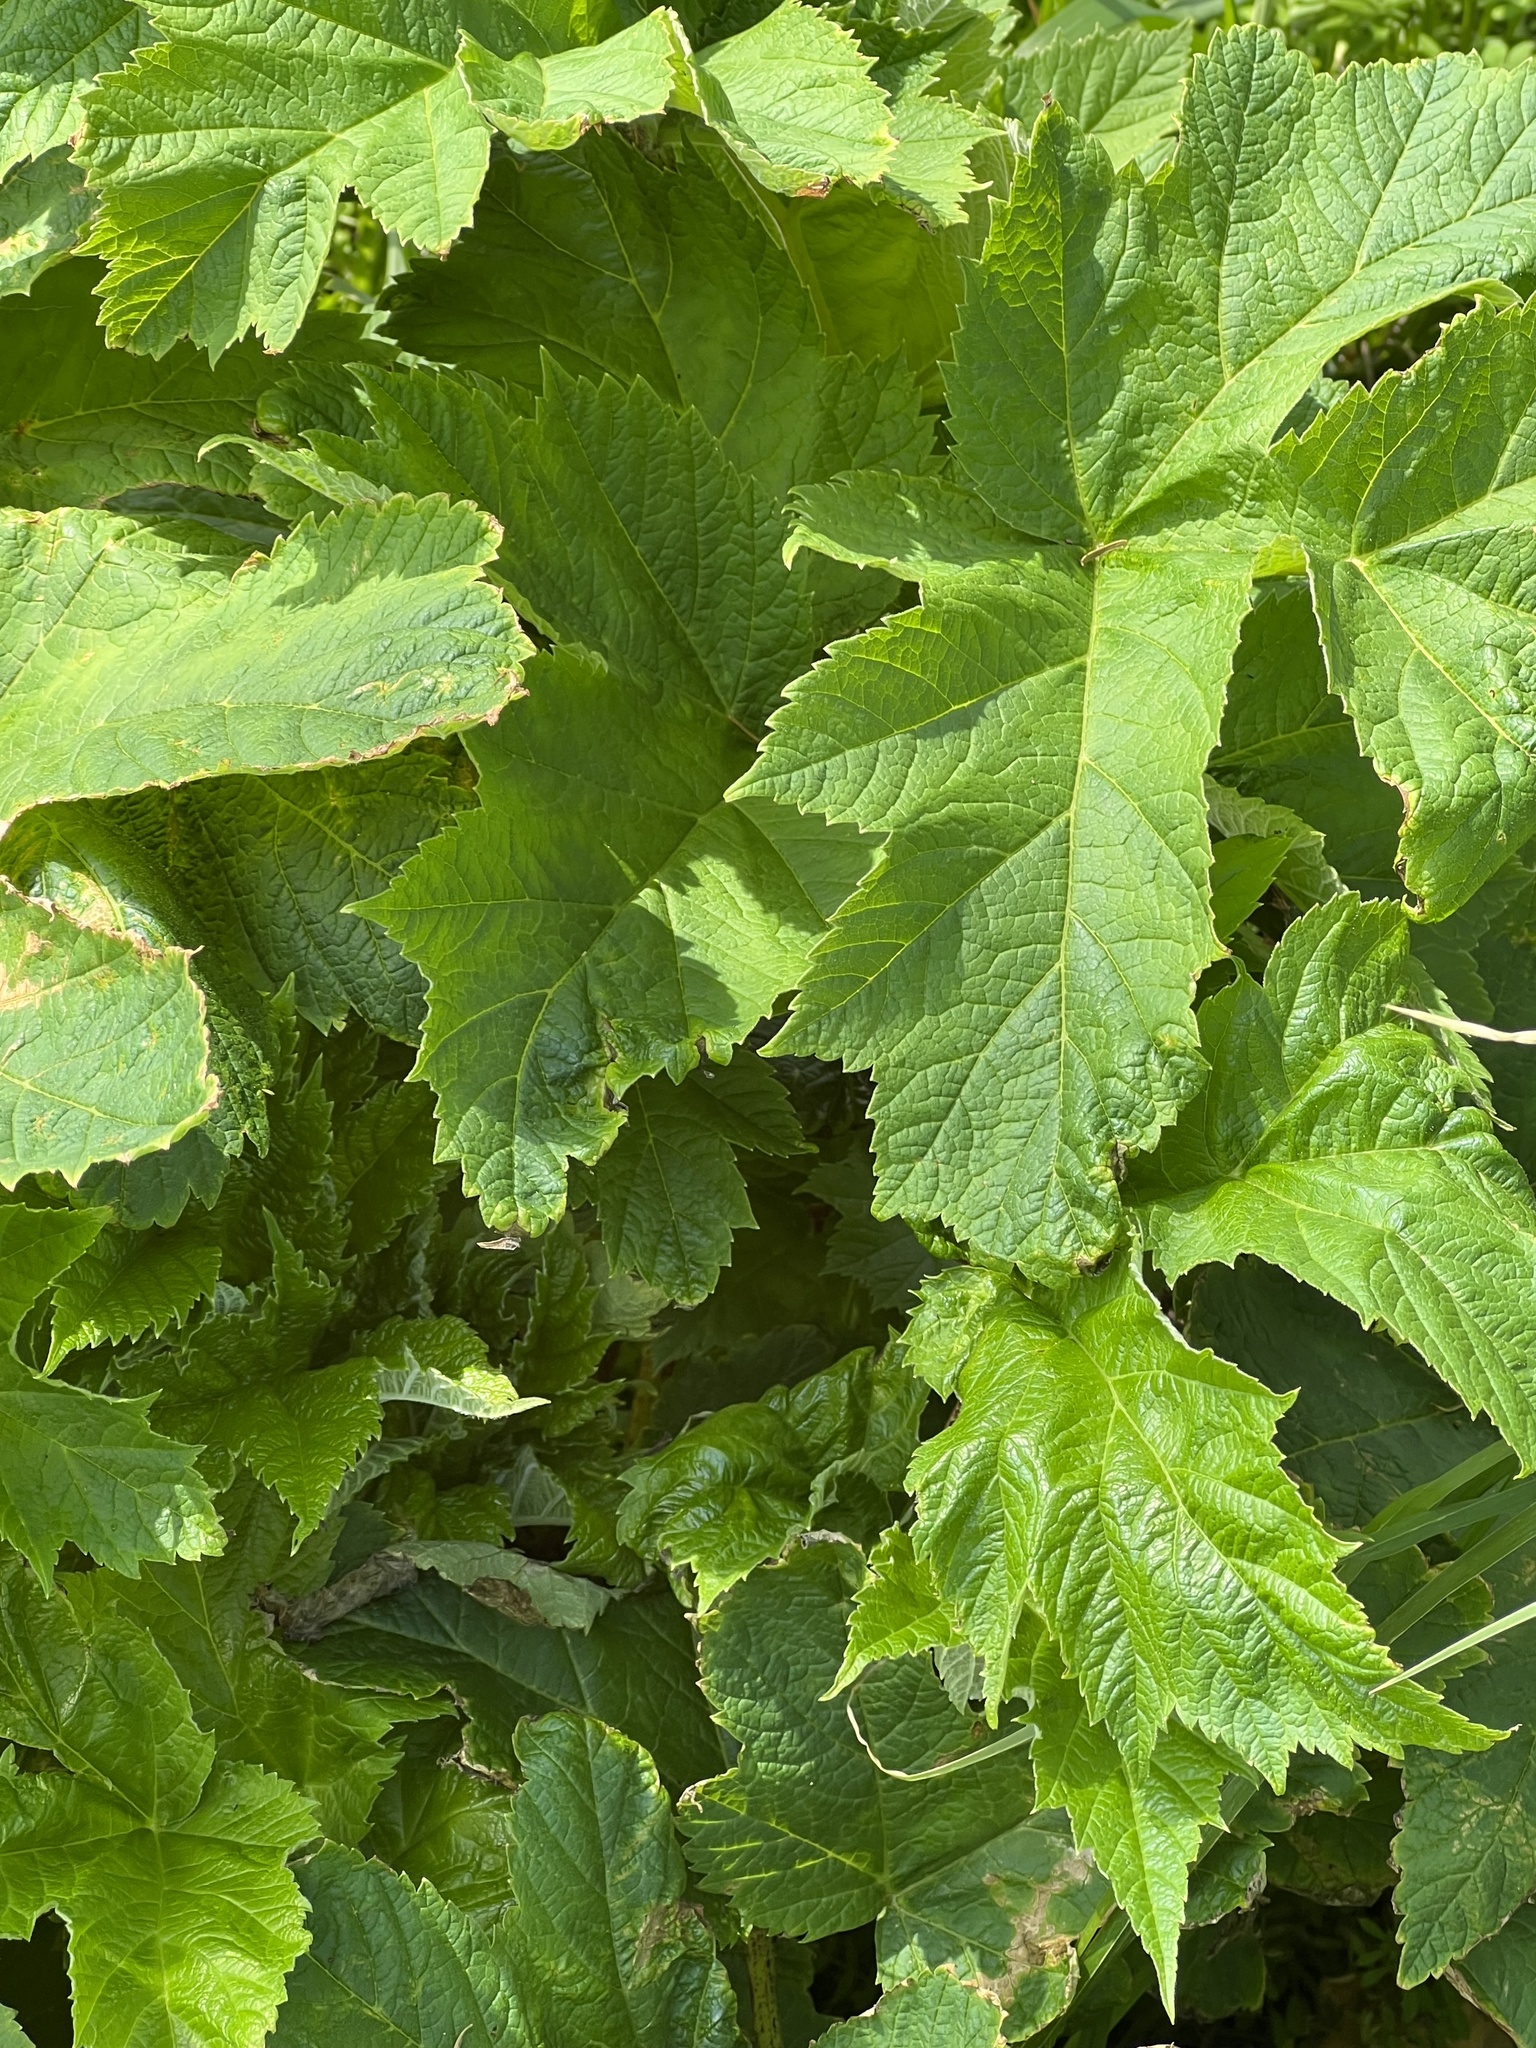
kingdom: Plantae
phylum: Tracheophyta
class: Magnoliopsida
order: Apiales
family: Apiaceae
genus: Heracleum
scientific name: Heracleum maximum
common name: American cow parsnip
